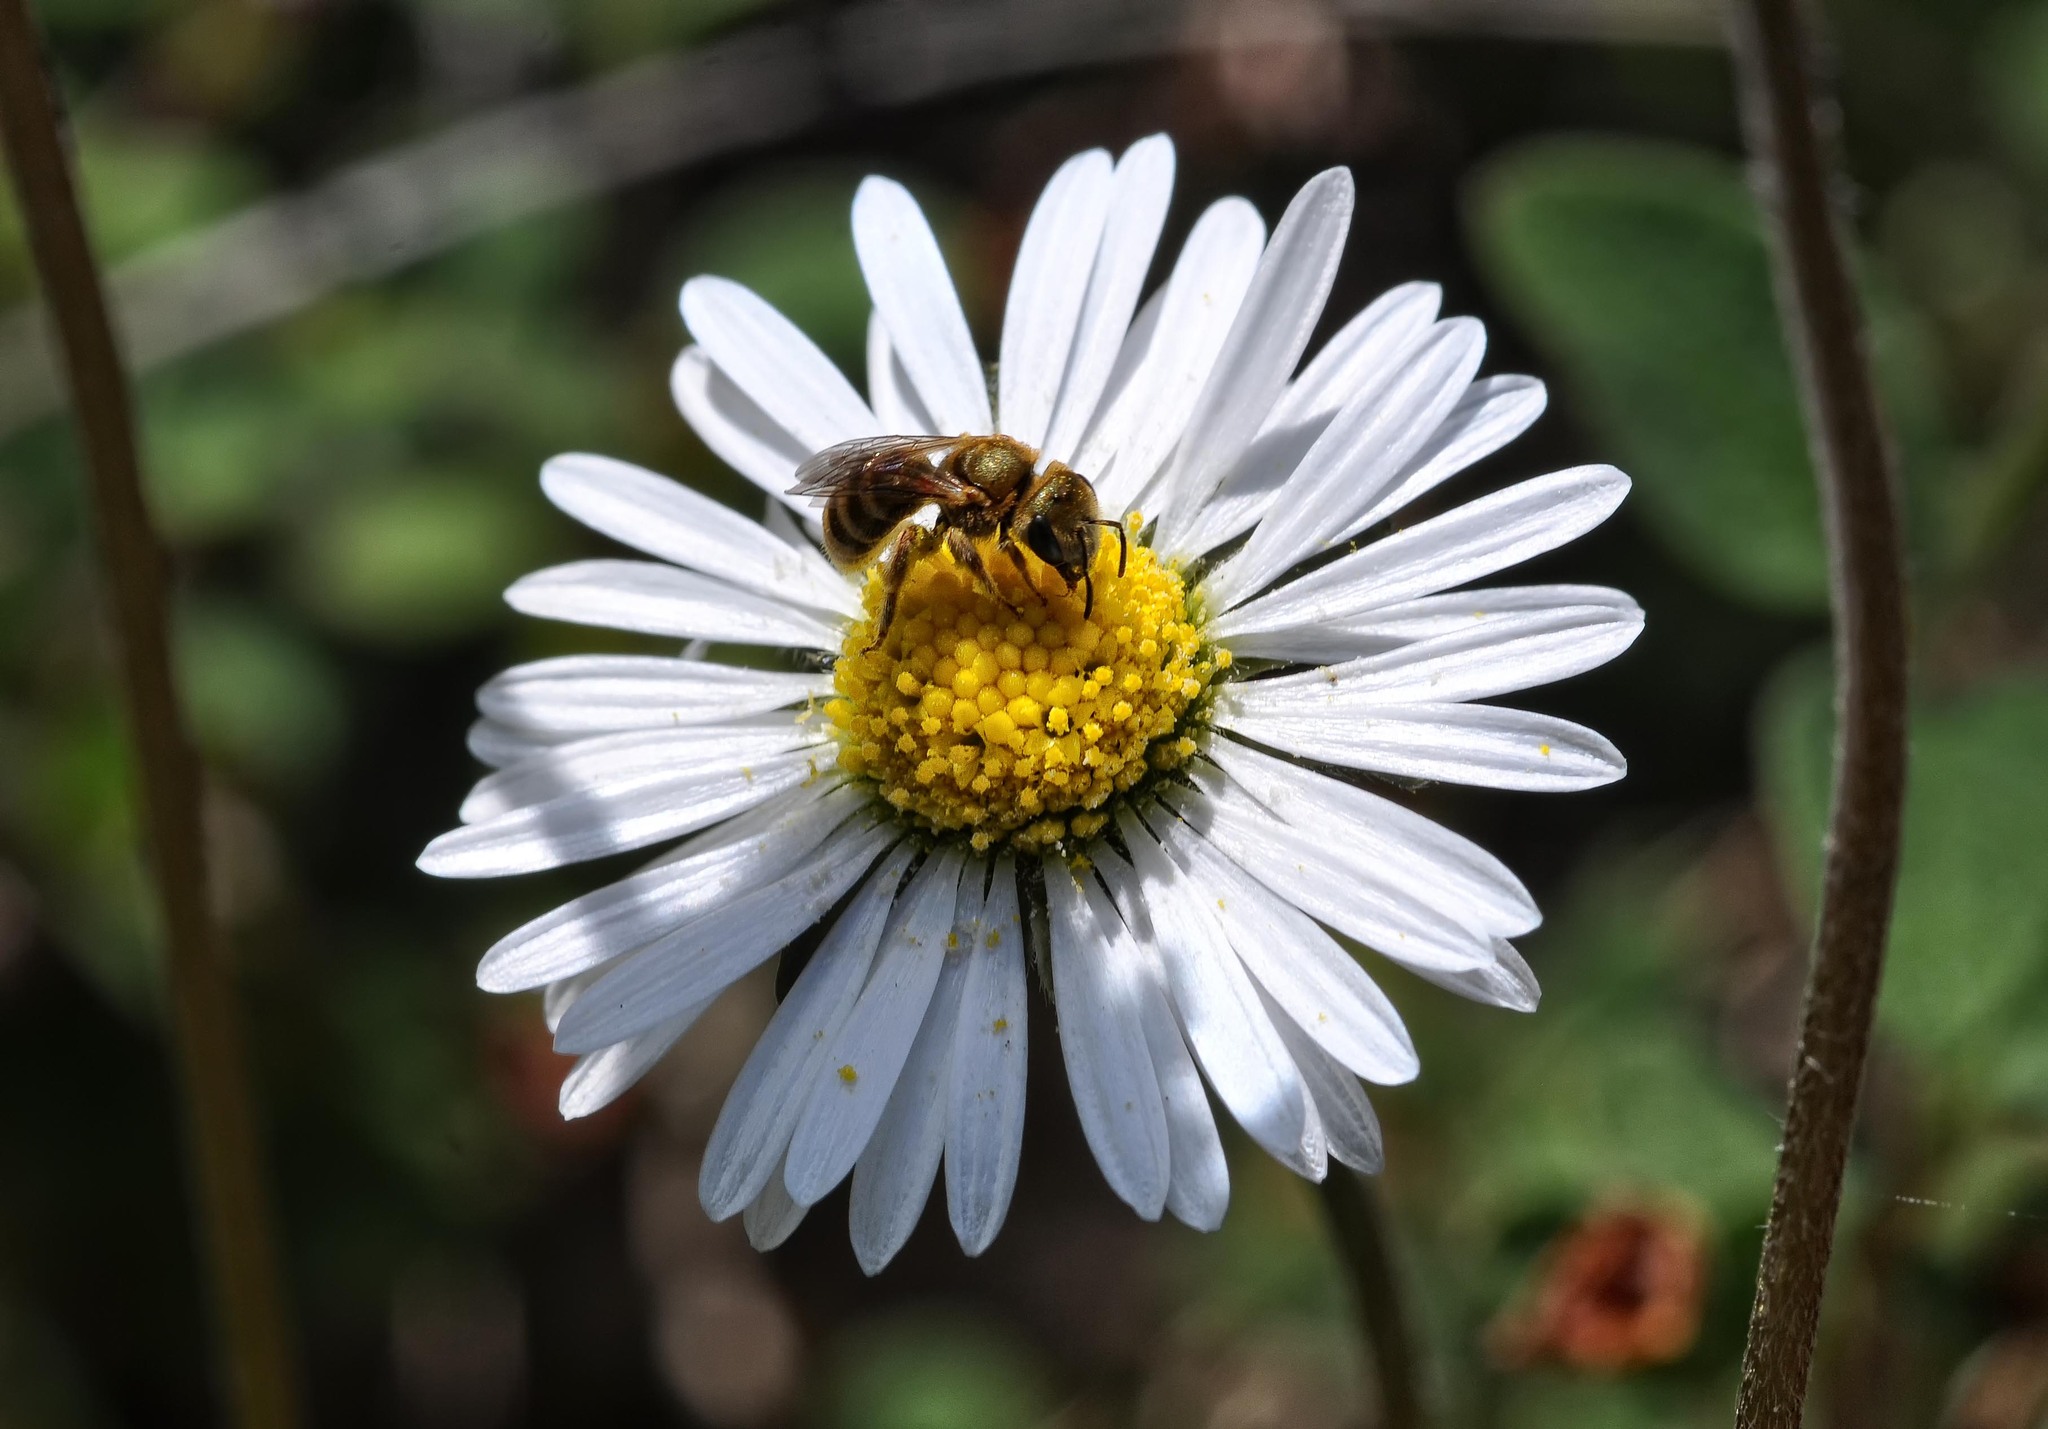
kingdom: Animalia
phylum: Arthropoda
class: Insecta
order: Hymenoptera
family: Halictidae
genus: Halictus
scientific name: Halictus subauratus
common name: Golden furrow bee
